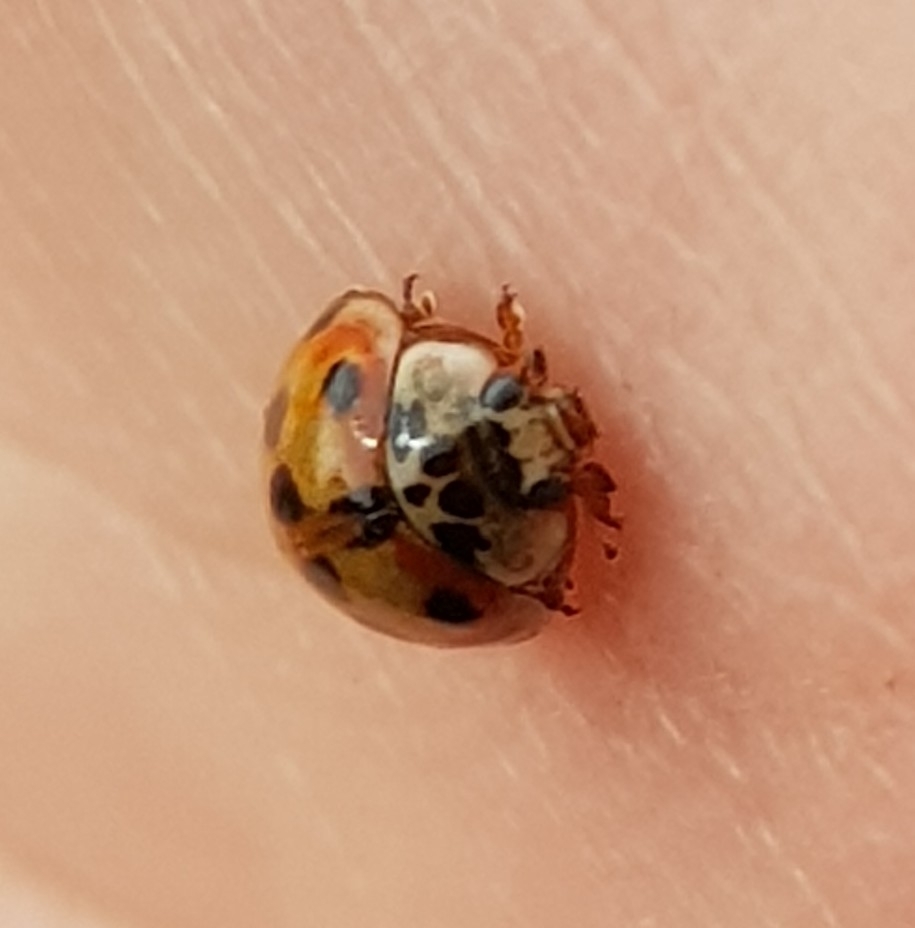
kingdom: Animalia
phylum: Arthropoda
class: Insecta
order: Coleoptera
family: Coccinellidae
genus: Adalia
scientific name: Adalia decempunctata
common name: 10-spot ladybird
